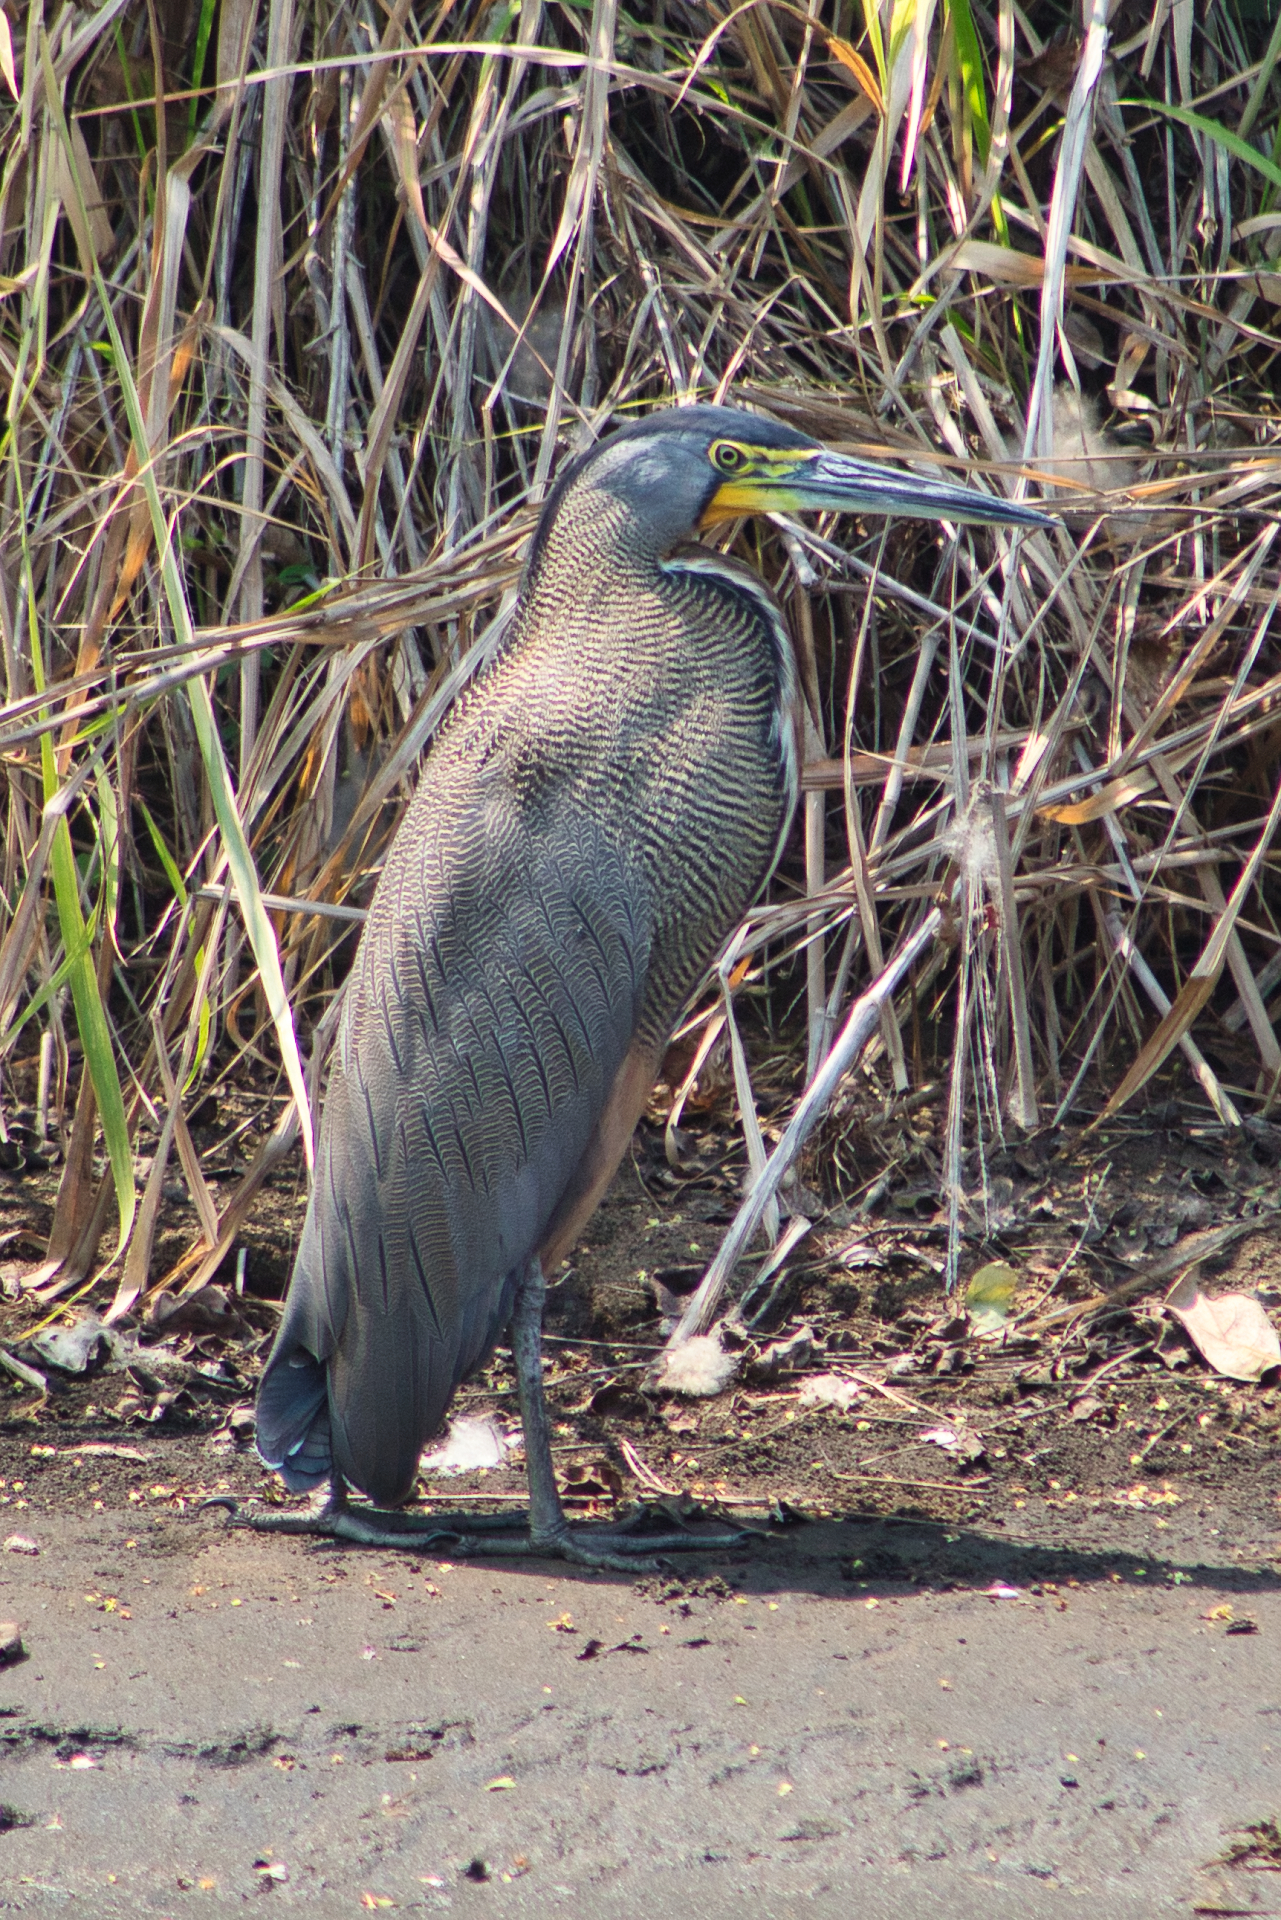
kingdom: Animalia
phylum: Chordata
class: Aves
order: Pelecaniformes
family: Ardeidae
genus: Tigrisoma
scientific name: Tigrisoma mexicanum
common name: Bare-throated tiger-heron
